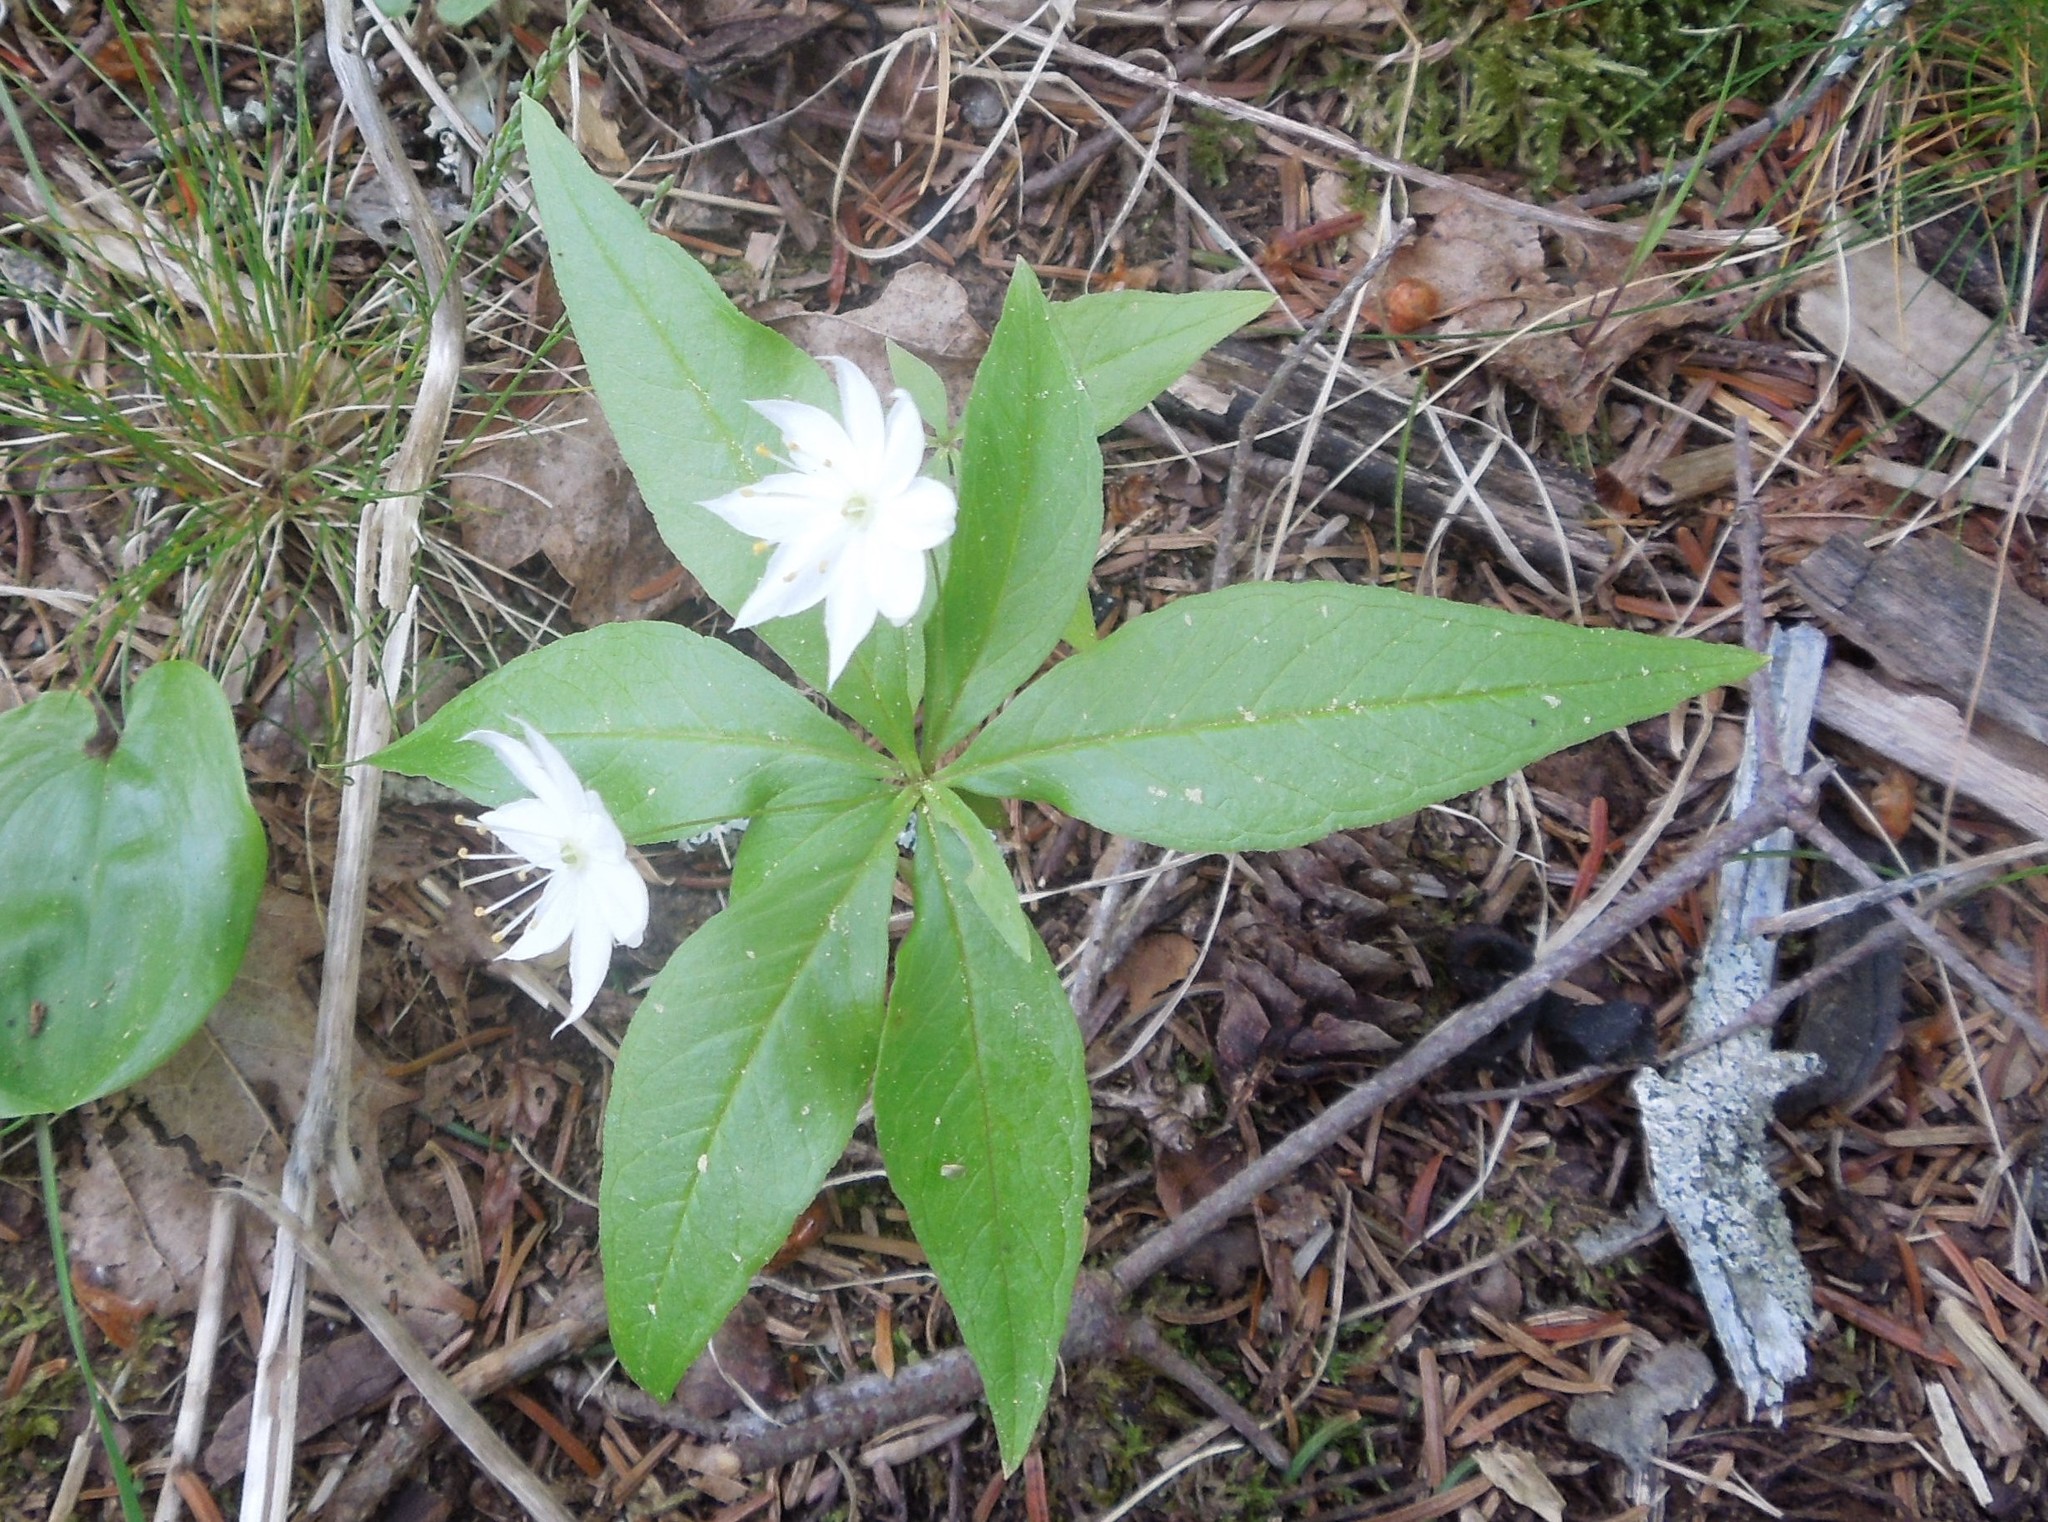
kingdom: Plantae
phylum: Tracheophyta
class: Magnoliopsida
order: Ericales
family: Primulaceae
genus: Lysimachia
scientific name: Lysimachia borealis
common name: American starflower
